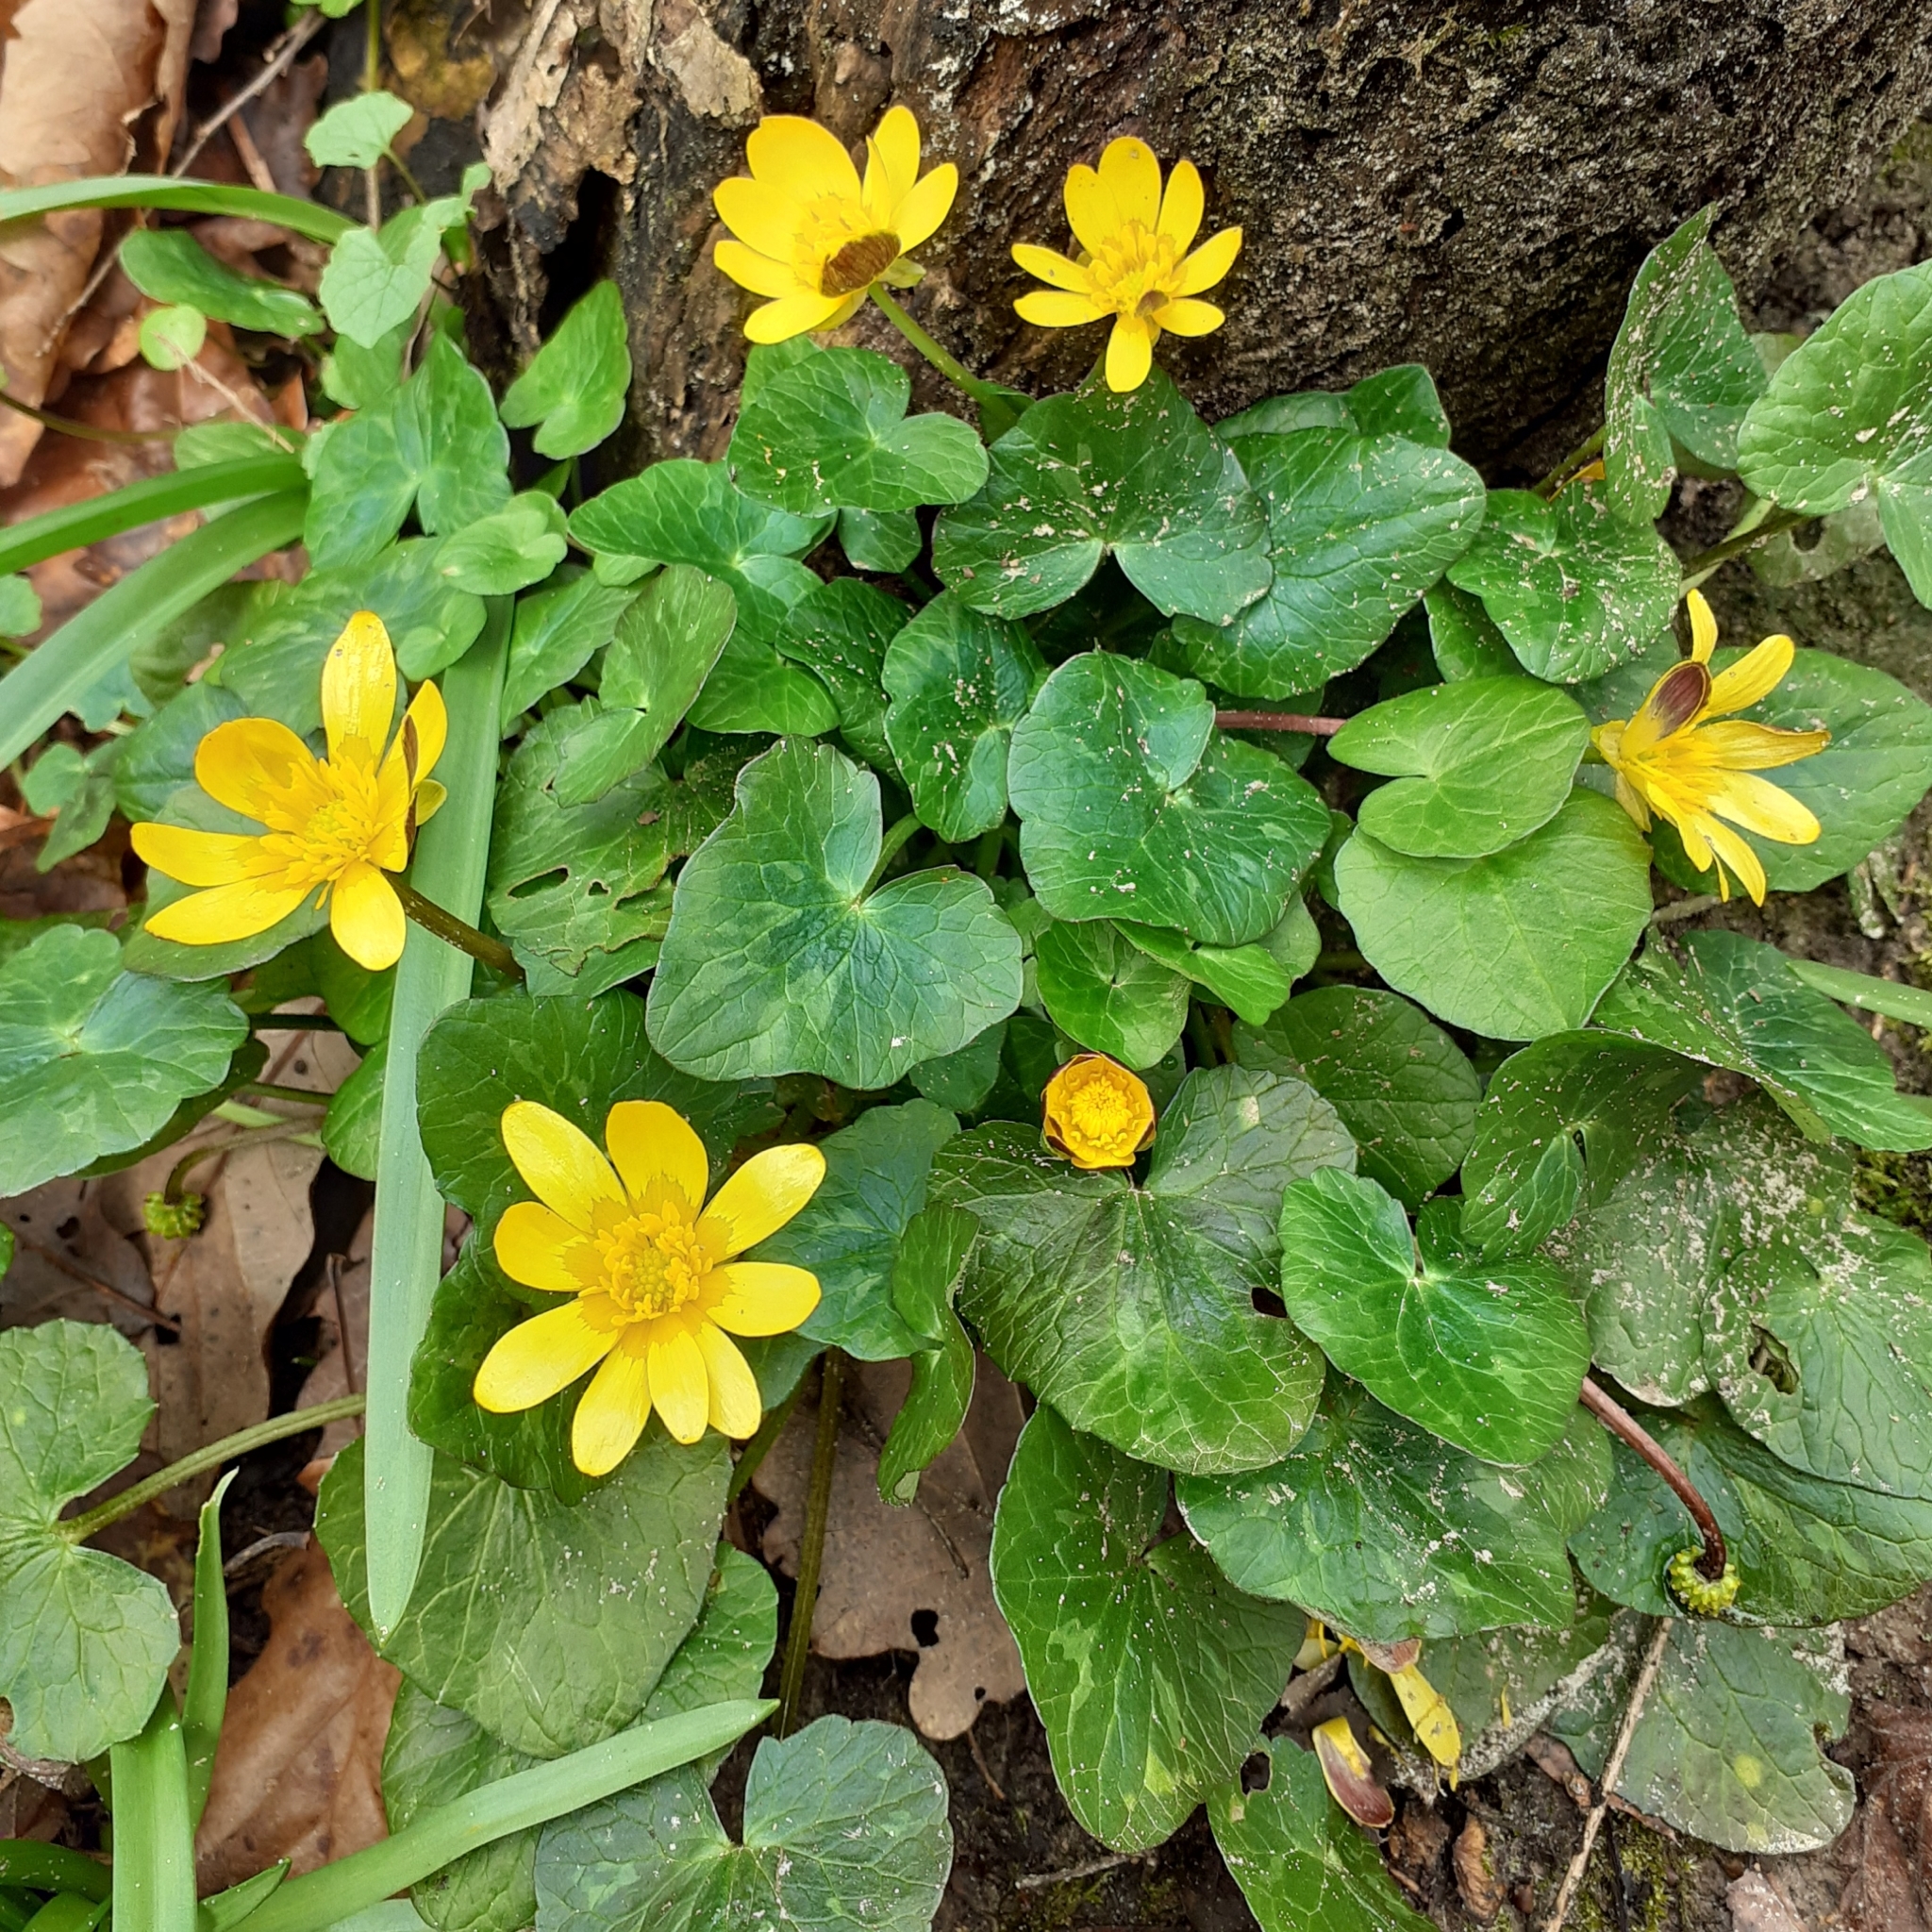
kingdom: Plantae
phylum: Tracheophyta
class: Magnoliopsida
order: Ranunculales
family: Ranunculaceae
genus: Ficaria
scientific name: Ficaria verna
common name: Lesser celandine
